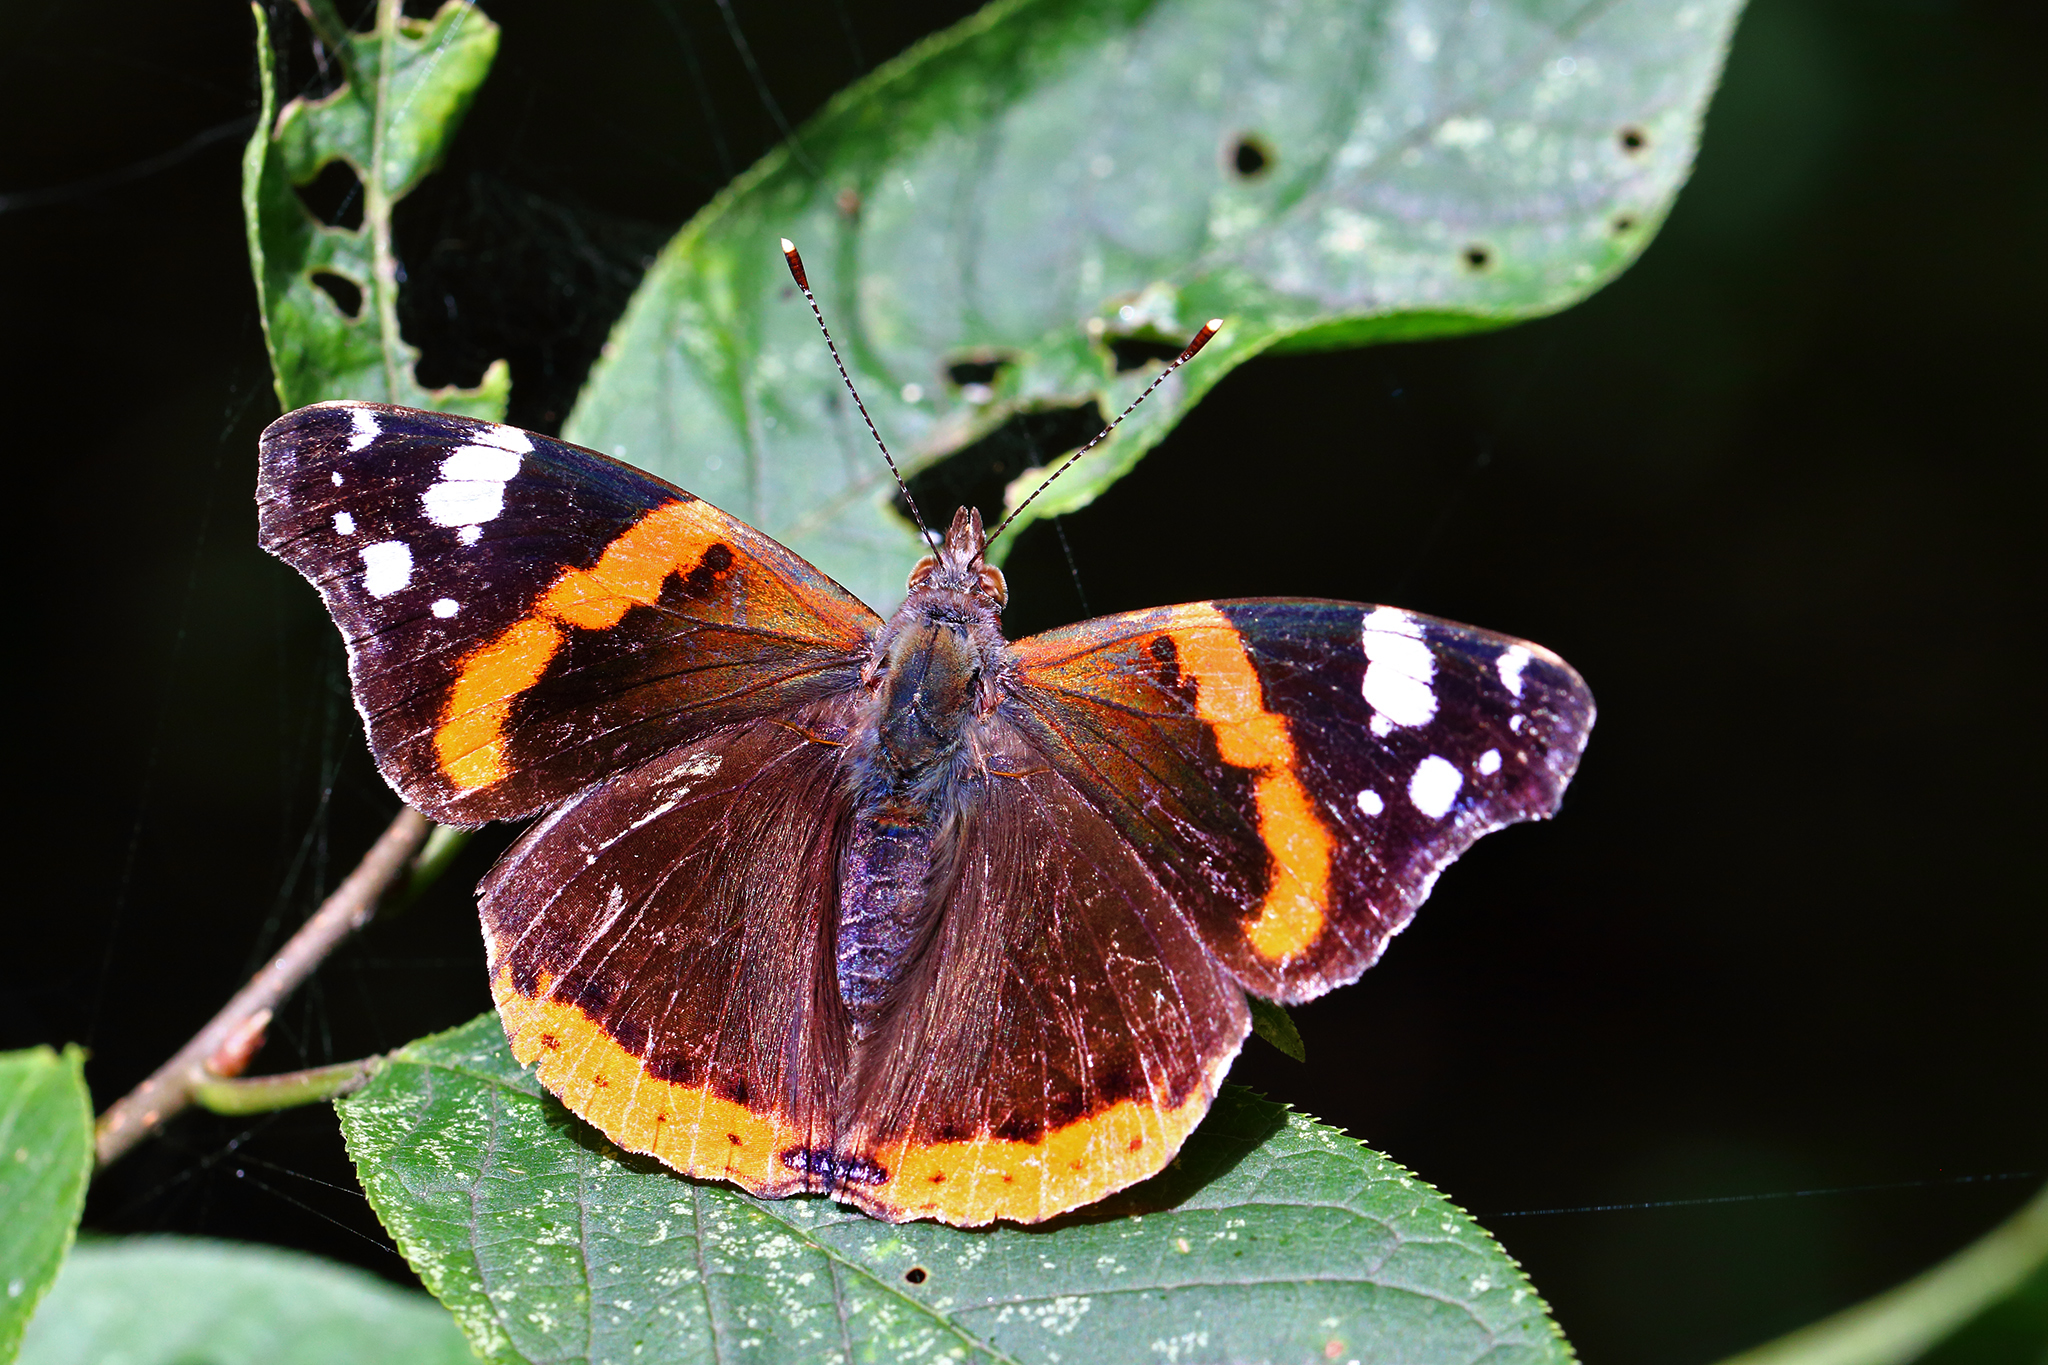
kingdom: Animalia
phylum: Arthropoda
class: Insecta
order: Lepidoptera
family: Nymphalidae
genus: Vanessa
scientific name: Vanessa atalanta
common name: Red admiral
